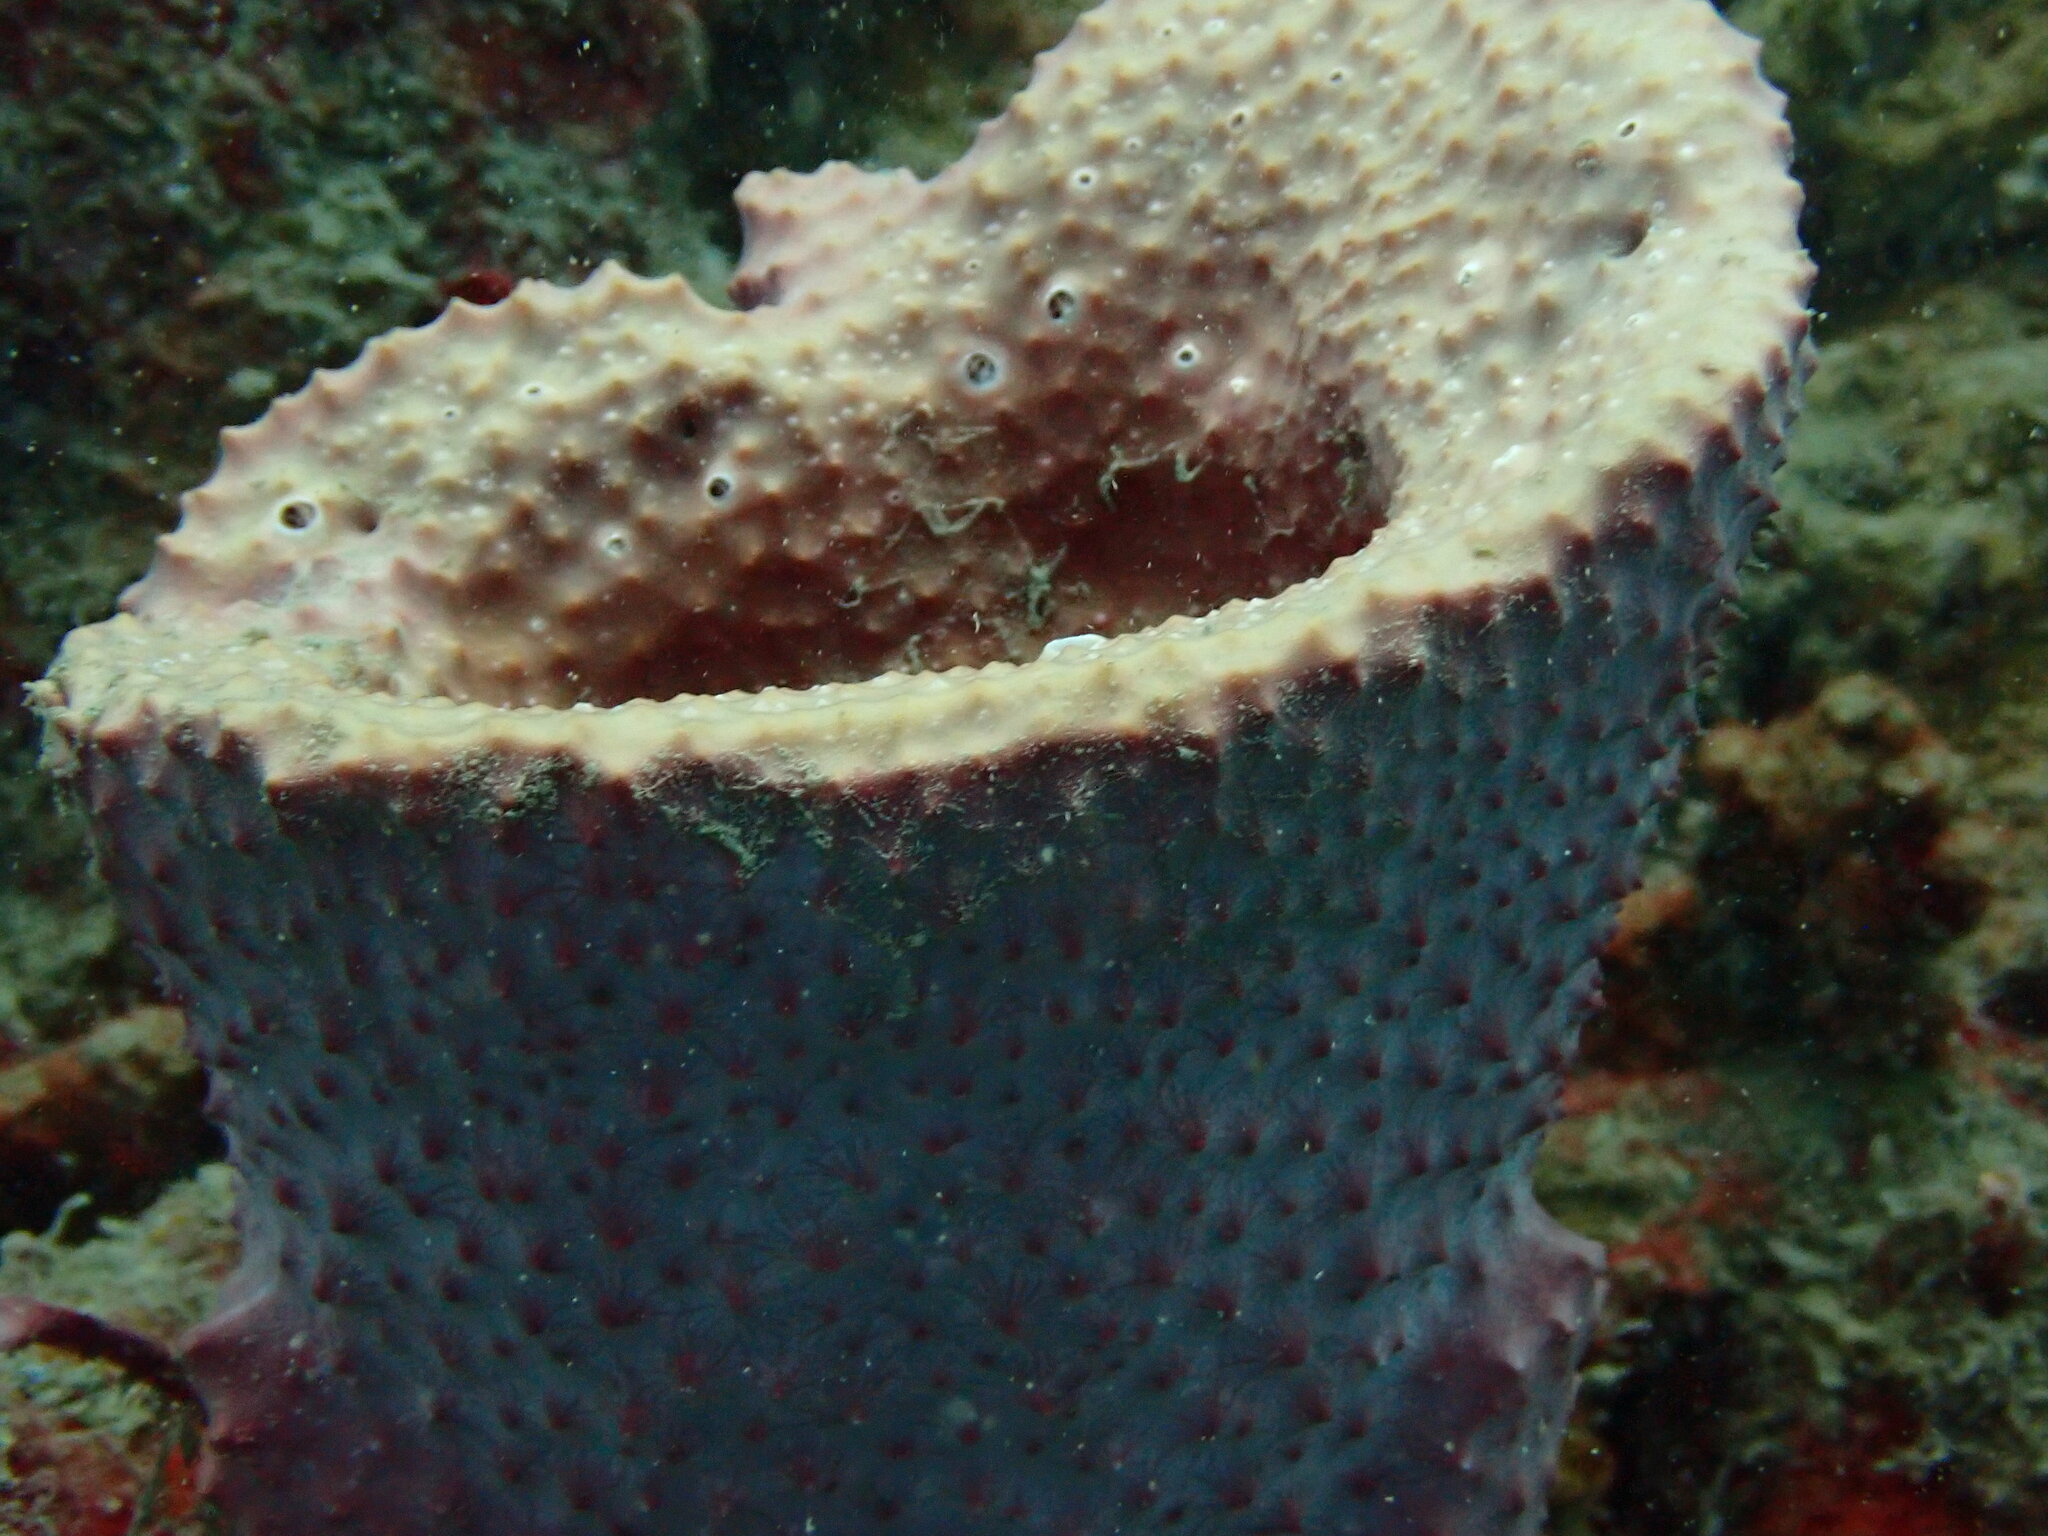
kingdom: Animalia
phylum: Porifera
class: Demospongiae
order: Dictyoceratida
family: Irciniidae
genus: Ircinia
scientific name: Ircinia campana
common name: Vase sponge
